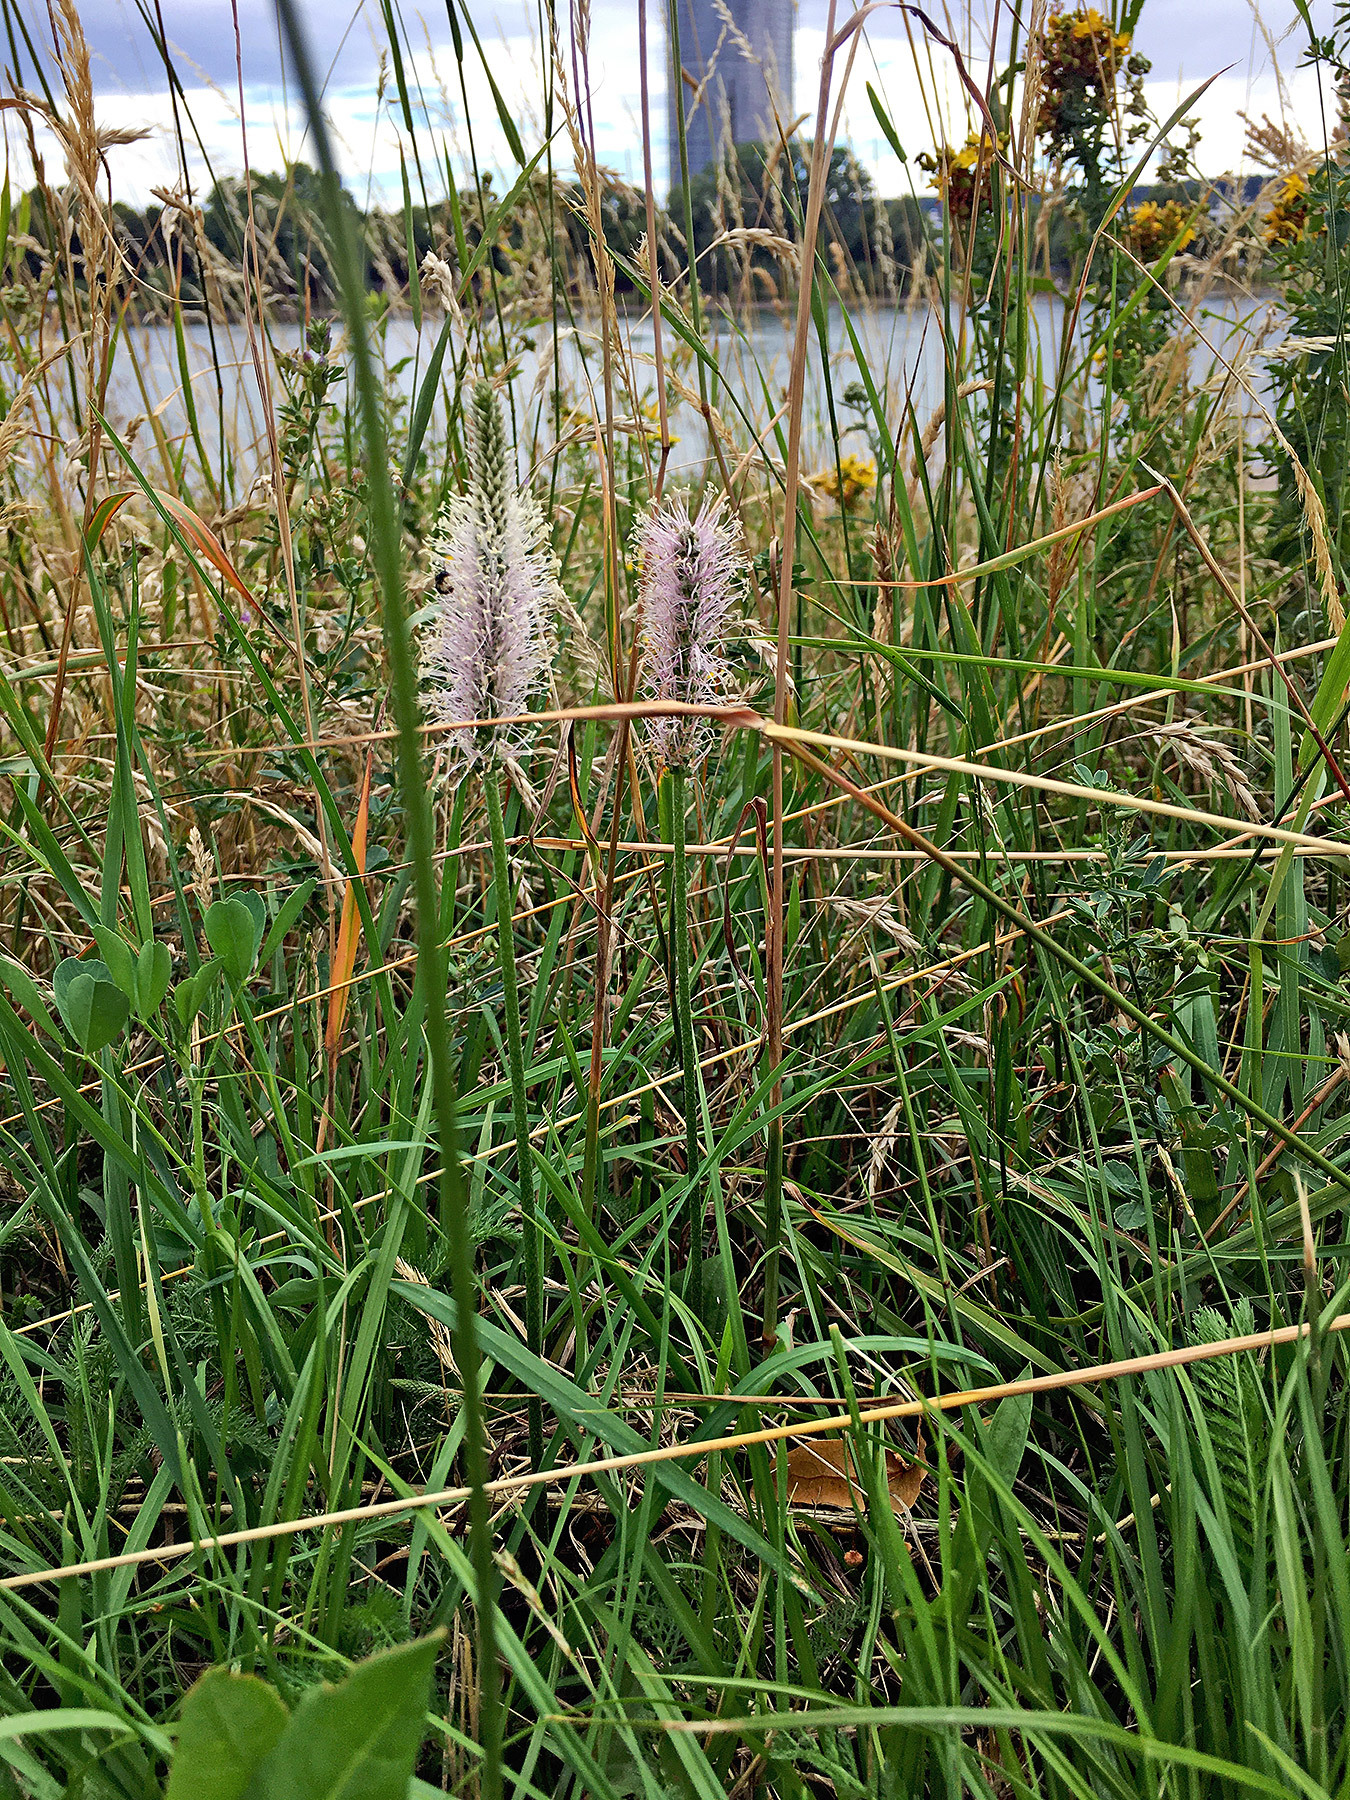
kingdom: Plantae
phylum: Tracheophyta
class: Magnoliopsida
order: Lamiales
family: Plantaginaceae
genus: Plantago
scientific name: Plantago media
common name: Hoary plantain
